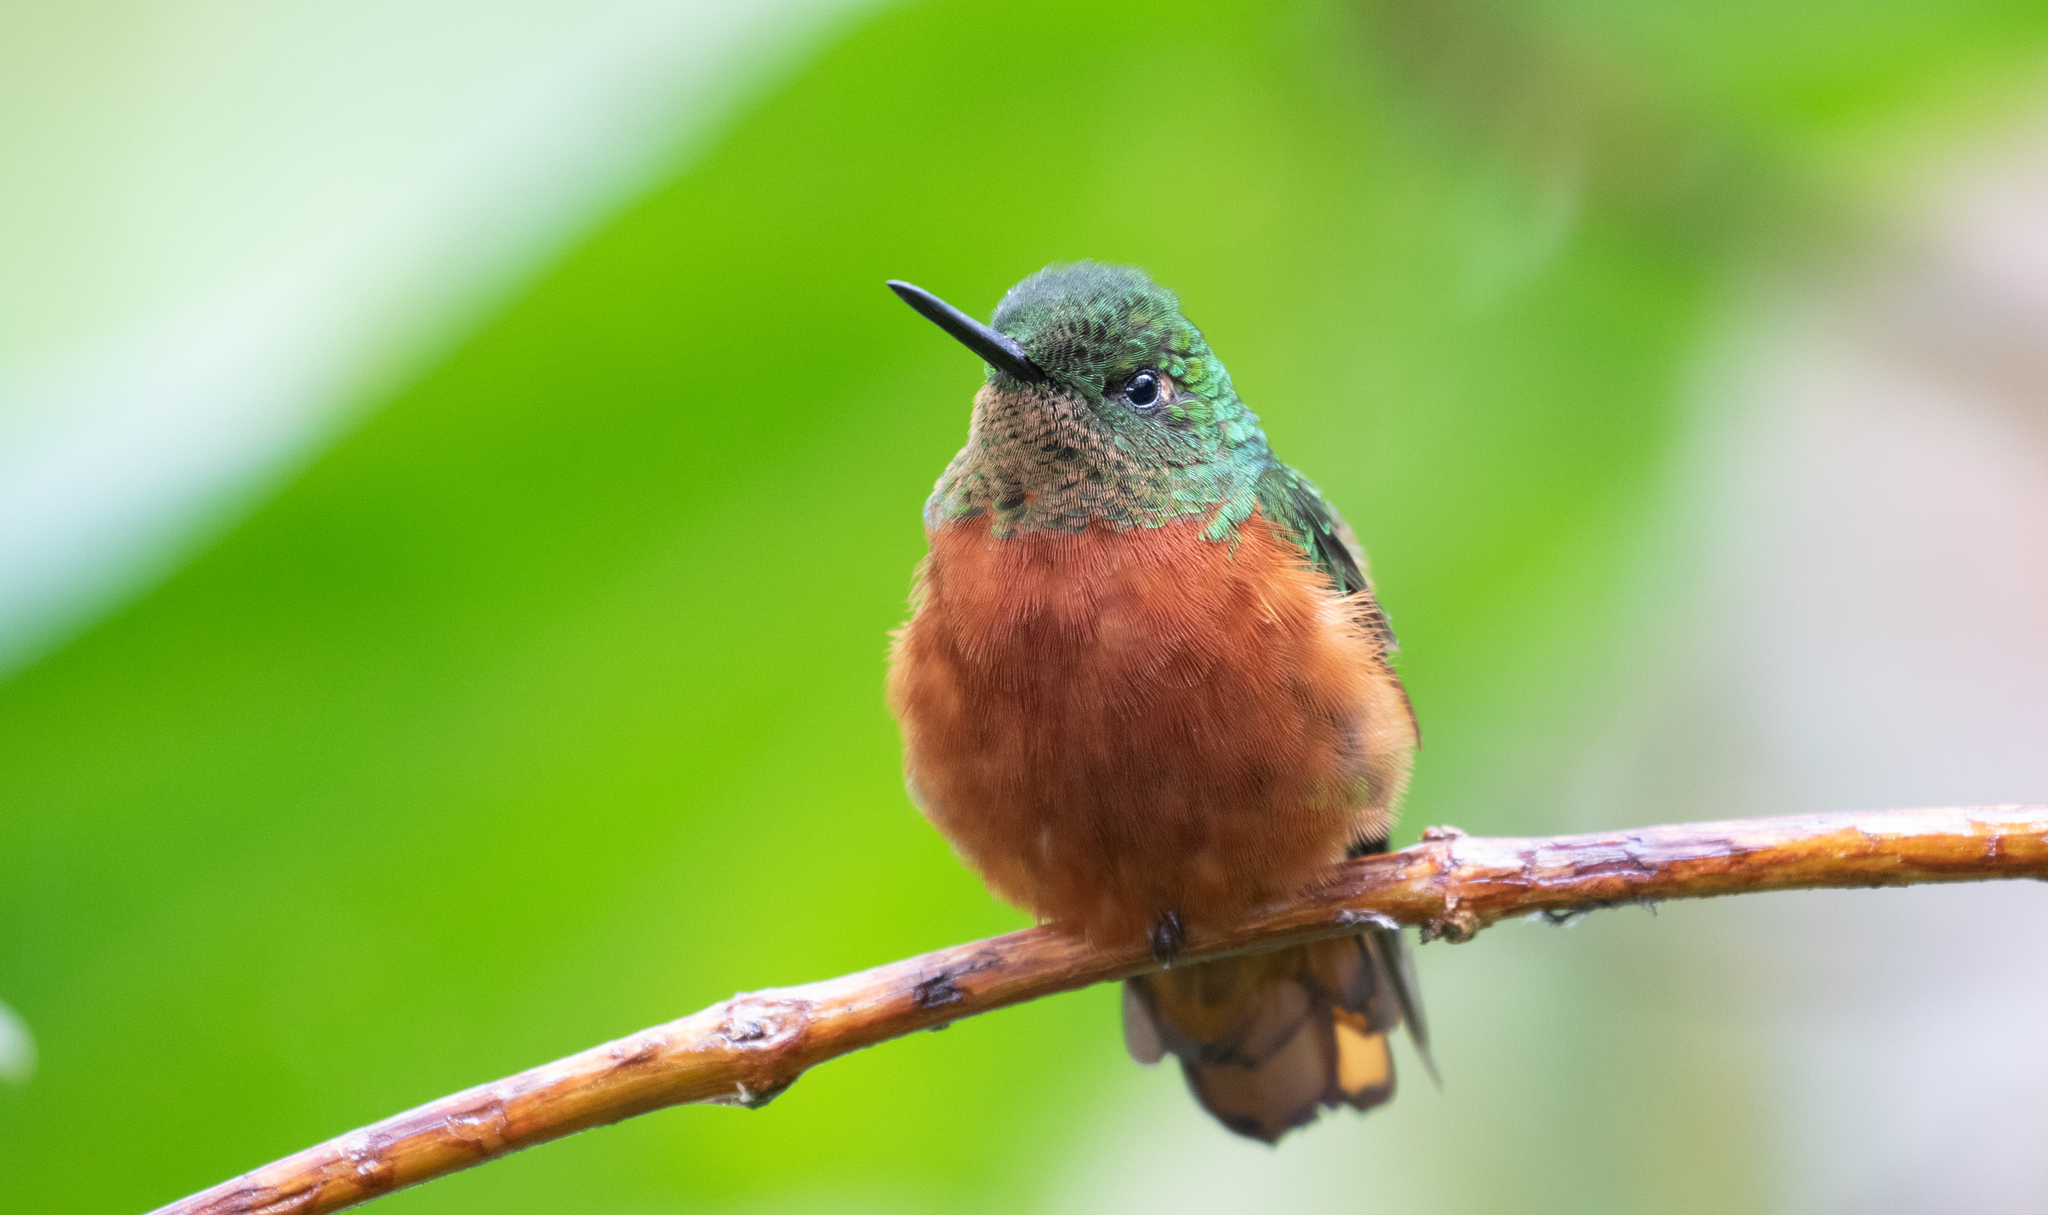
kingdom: Animalia
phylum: Chordata
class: Aves
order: Apodiformes
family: Trochilidae
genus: Boissonneaua
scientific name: Boissonneaua matthewsii
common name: Chestnut-breasted coronet
